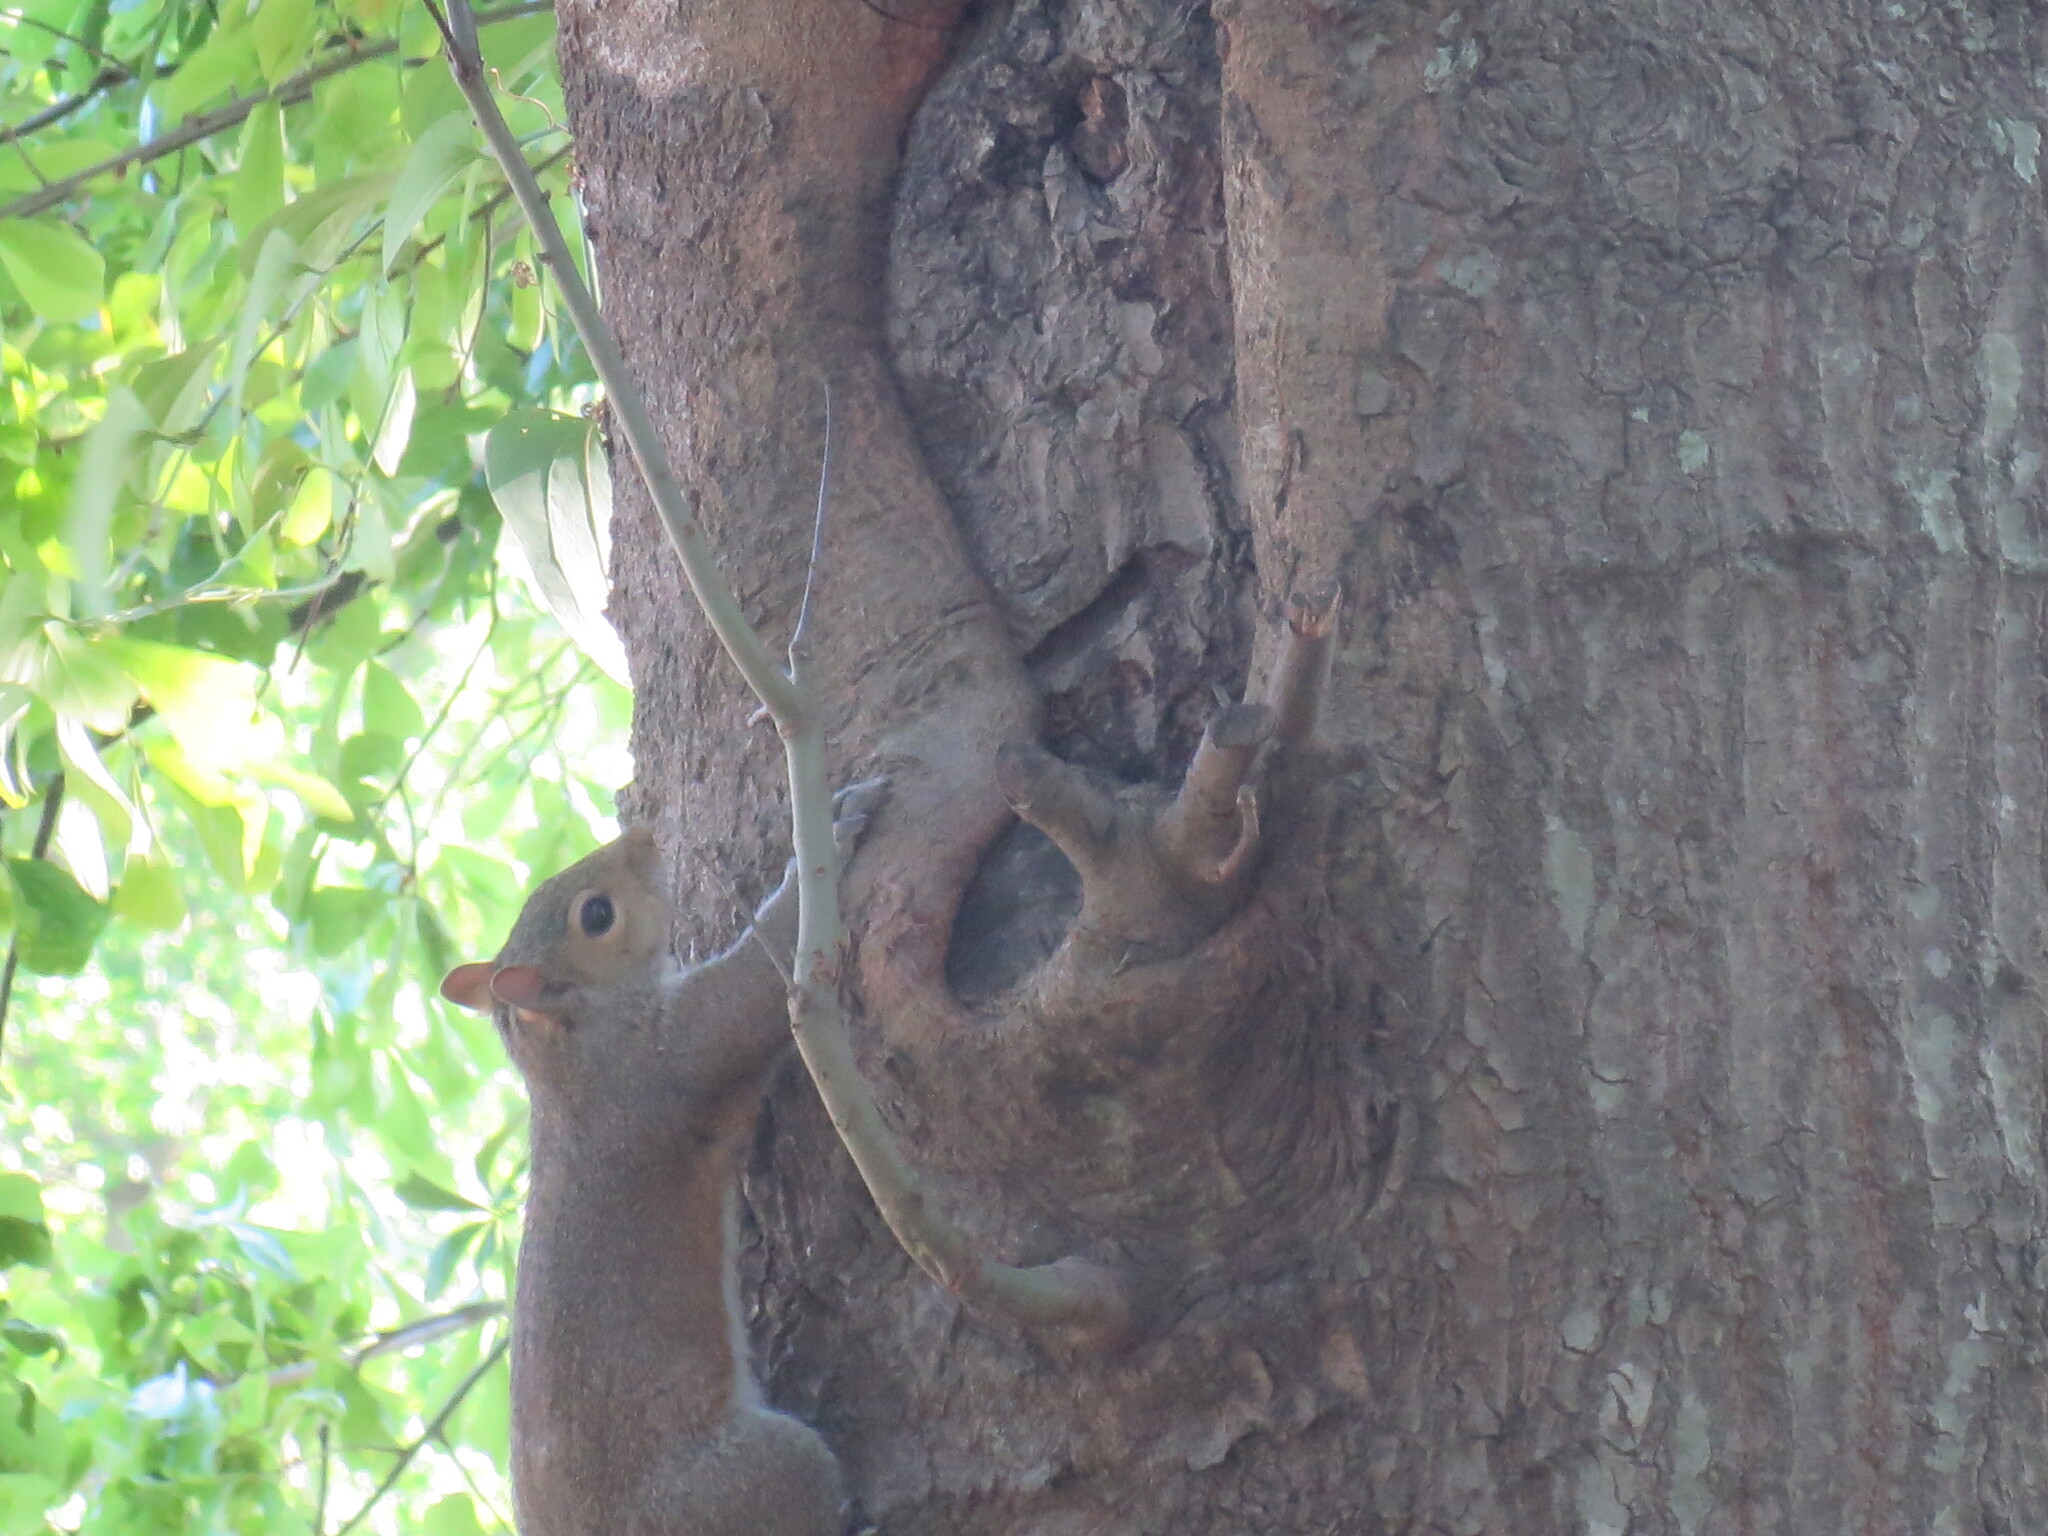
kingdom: Animalia
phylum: Chordata
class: Mammalia
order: Rodentia
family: Sciuridae
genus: Sciurus
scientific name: Sciurus carolinensis
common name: Eastern gray squirrel
